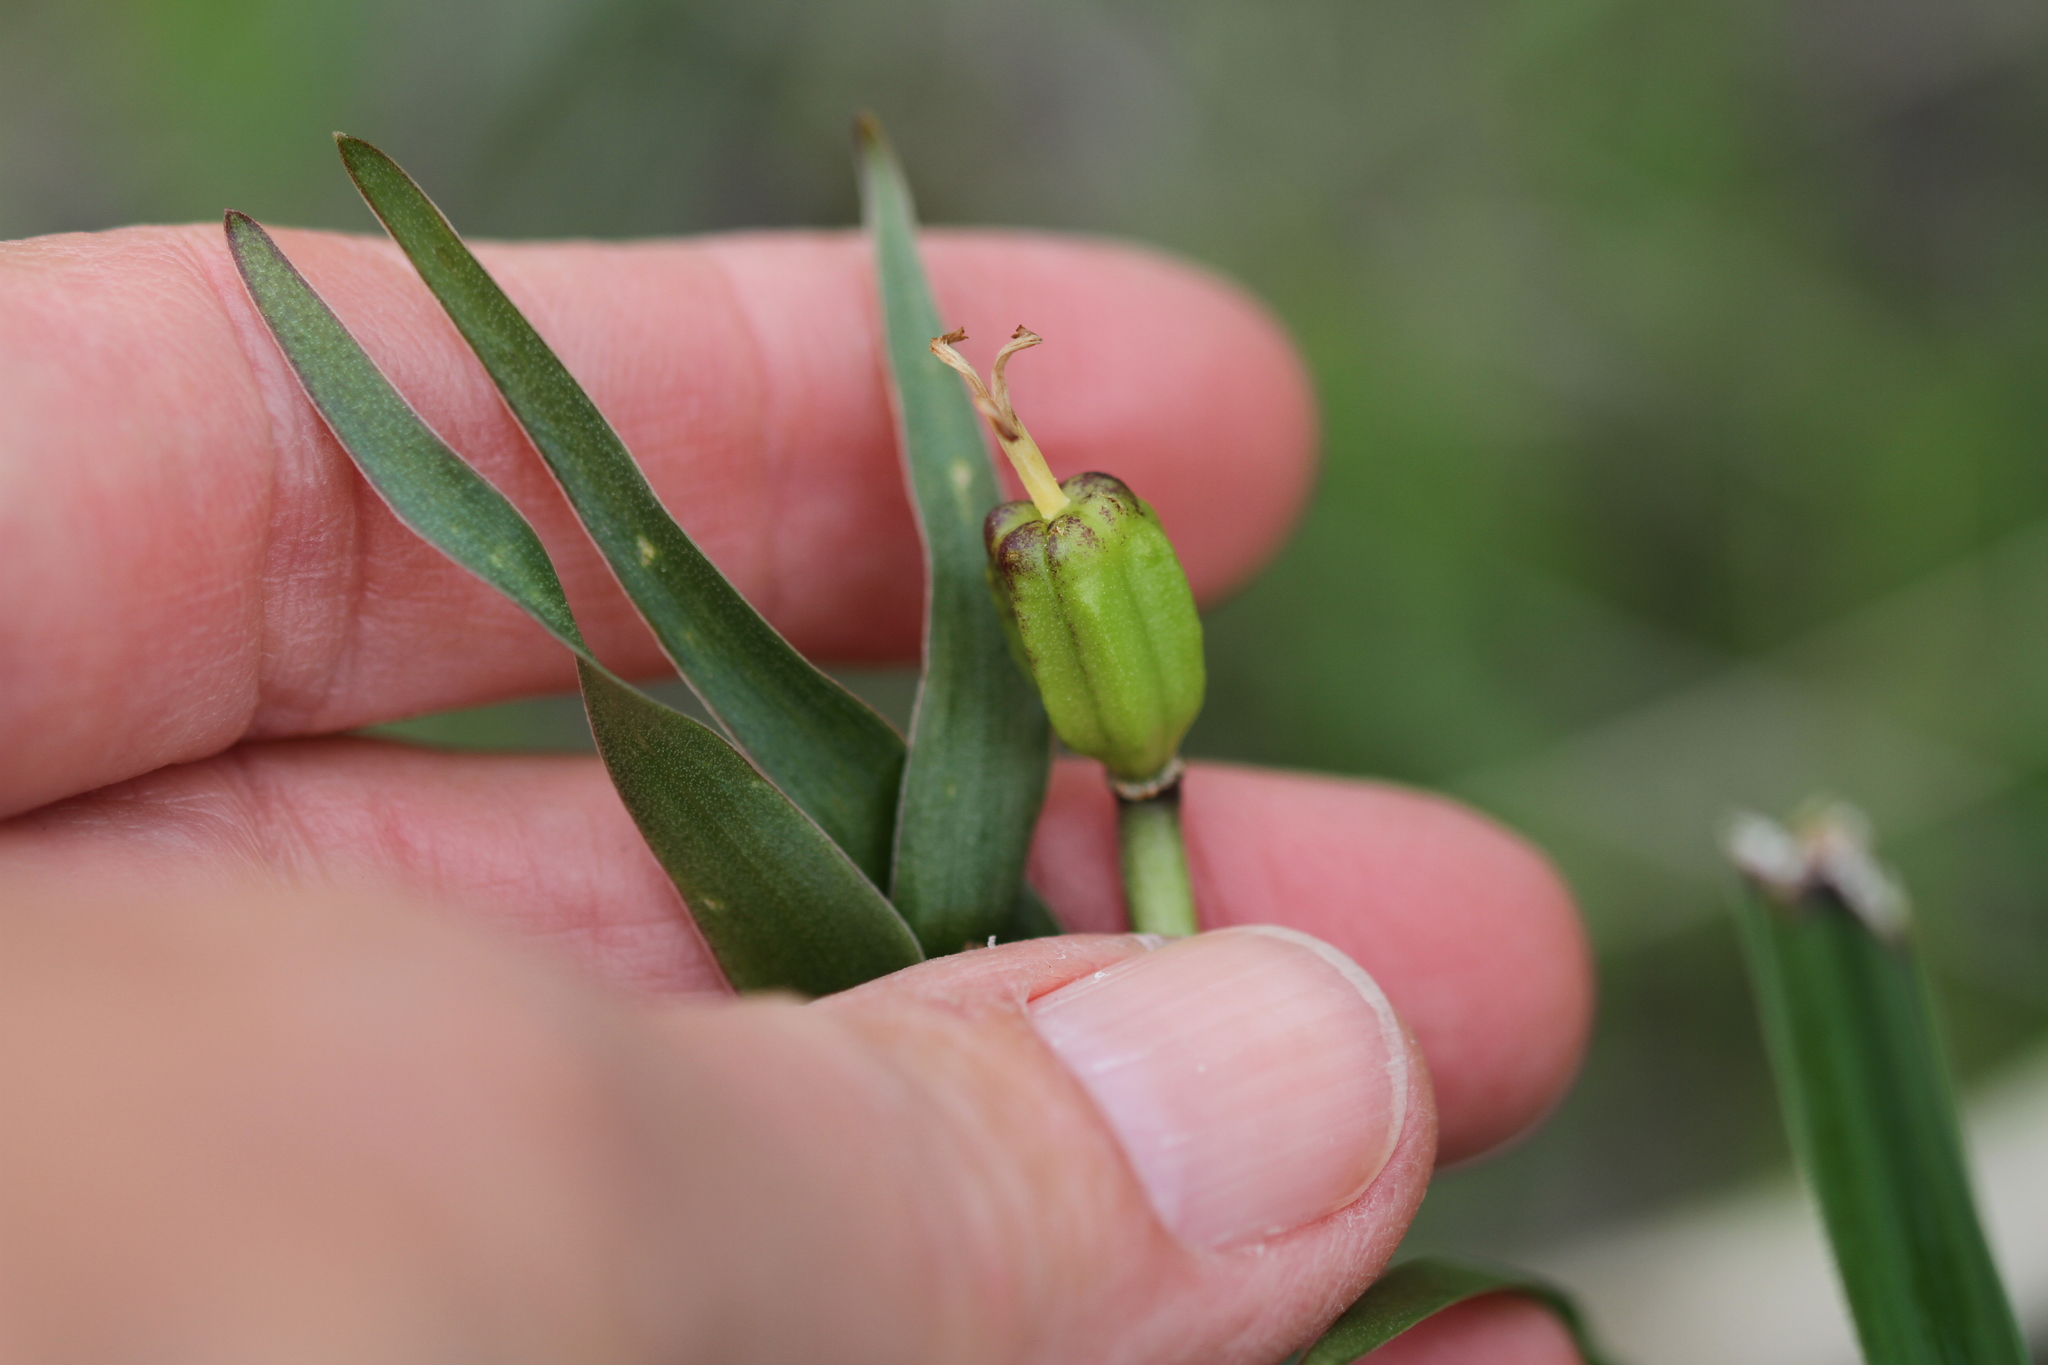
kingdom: Plantae
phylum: Tracheophyta
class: Liliopsida
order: Liliales
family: Liliaceae
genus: Fritillaria
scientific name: Fritillaria biflora
